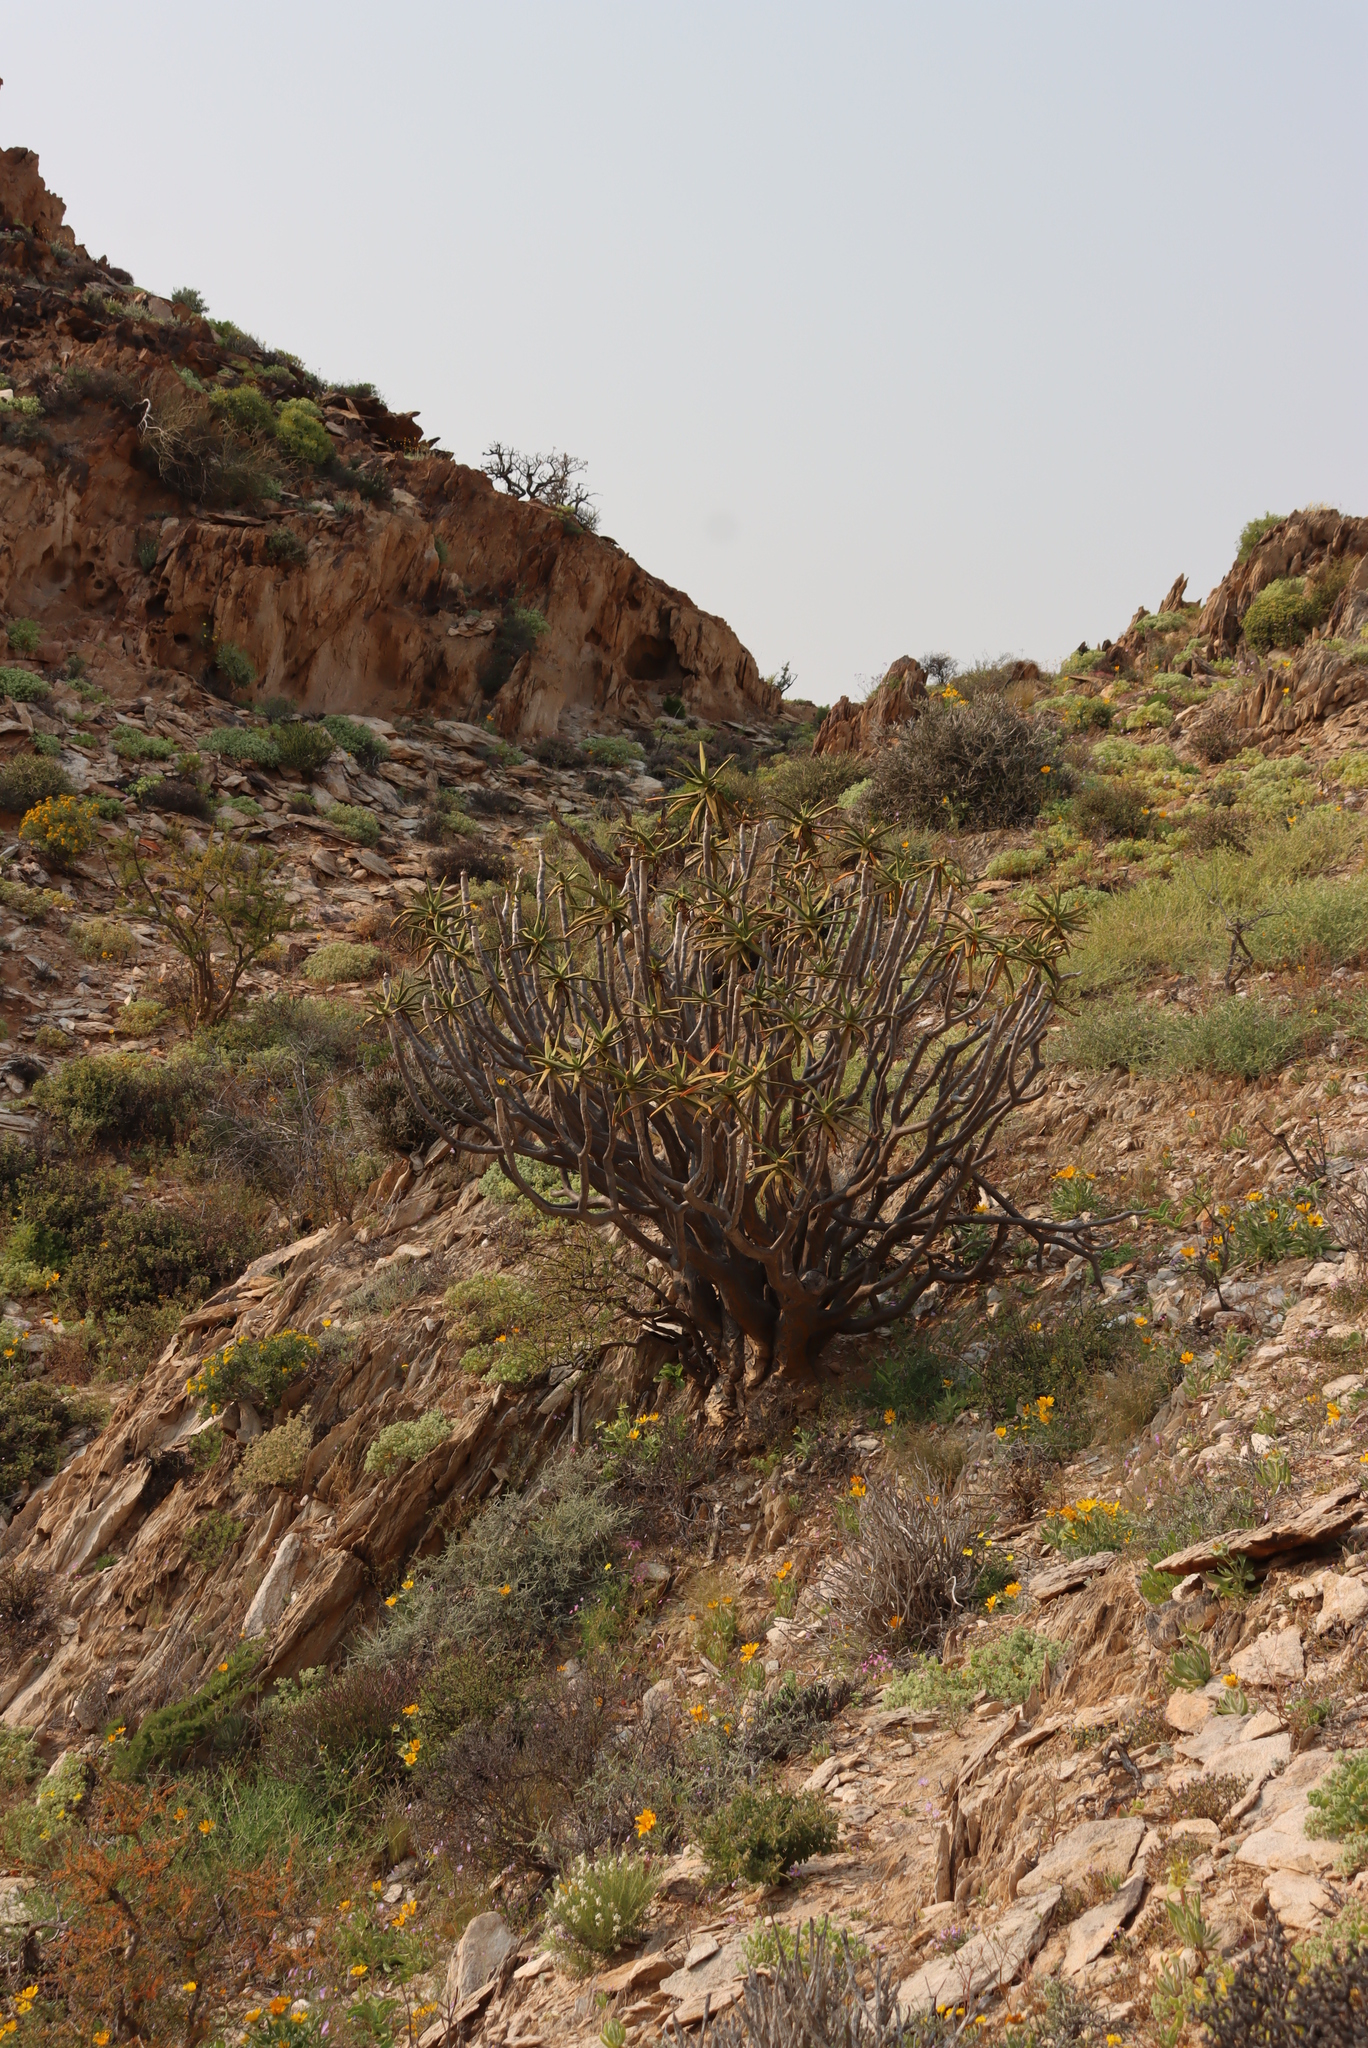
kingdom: Plantae
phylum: Tracheophyta
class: Liliopsida
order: Asparagales
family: Asphodelaceae
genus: Aloidendron
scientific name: Aloidendron ramosissimum
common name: Bush quiver tree
